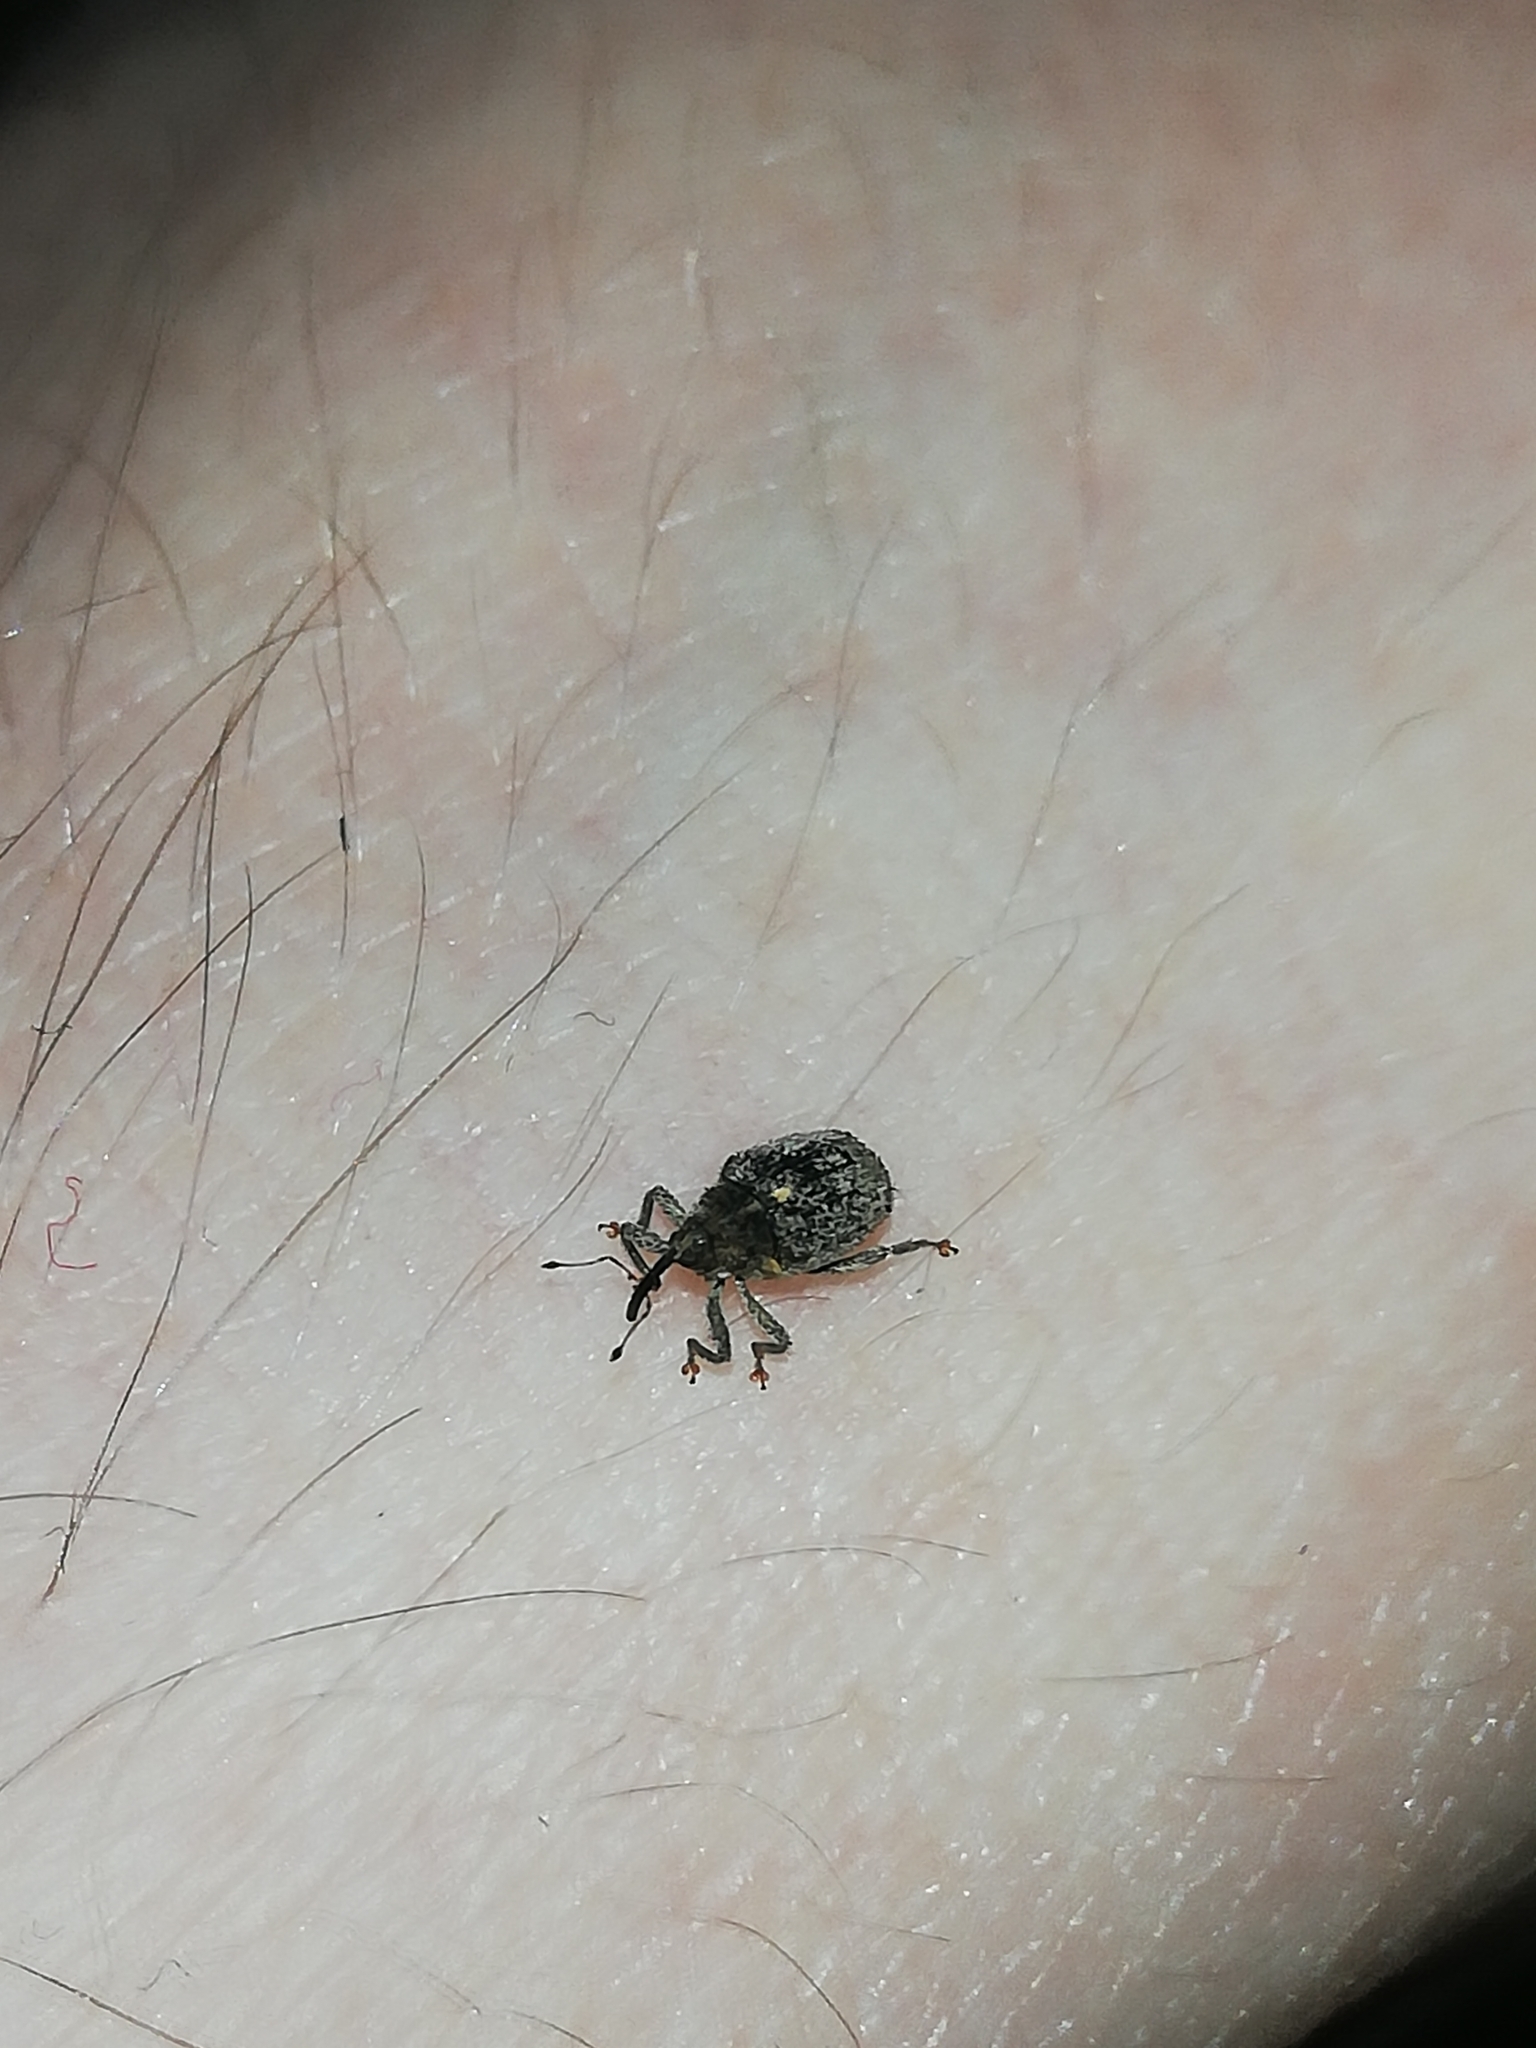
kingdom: Animalia
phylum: Arthropoda
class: Insecta
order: Coleoptera
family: Curculionidae
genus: Ceutorhynchus
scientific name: Ceutorhynchus pallidactylus
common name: Cabbage stem weavil
